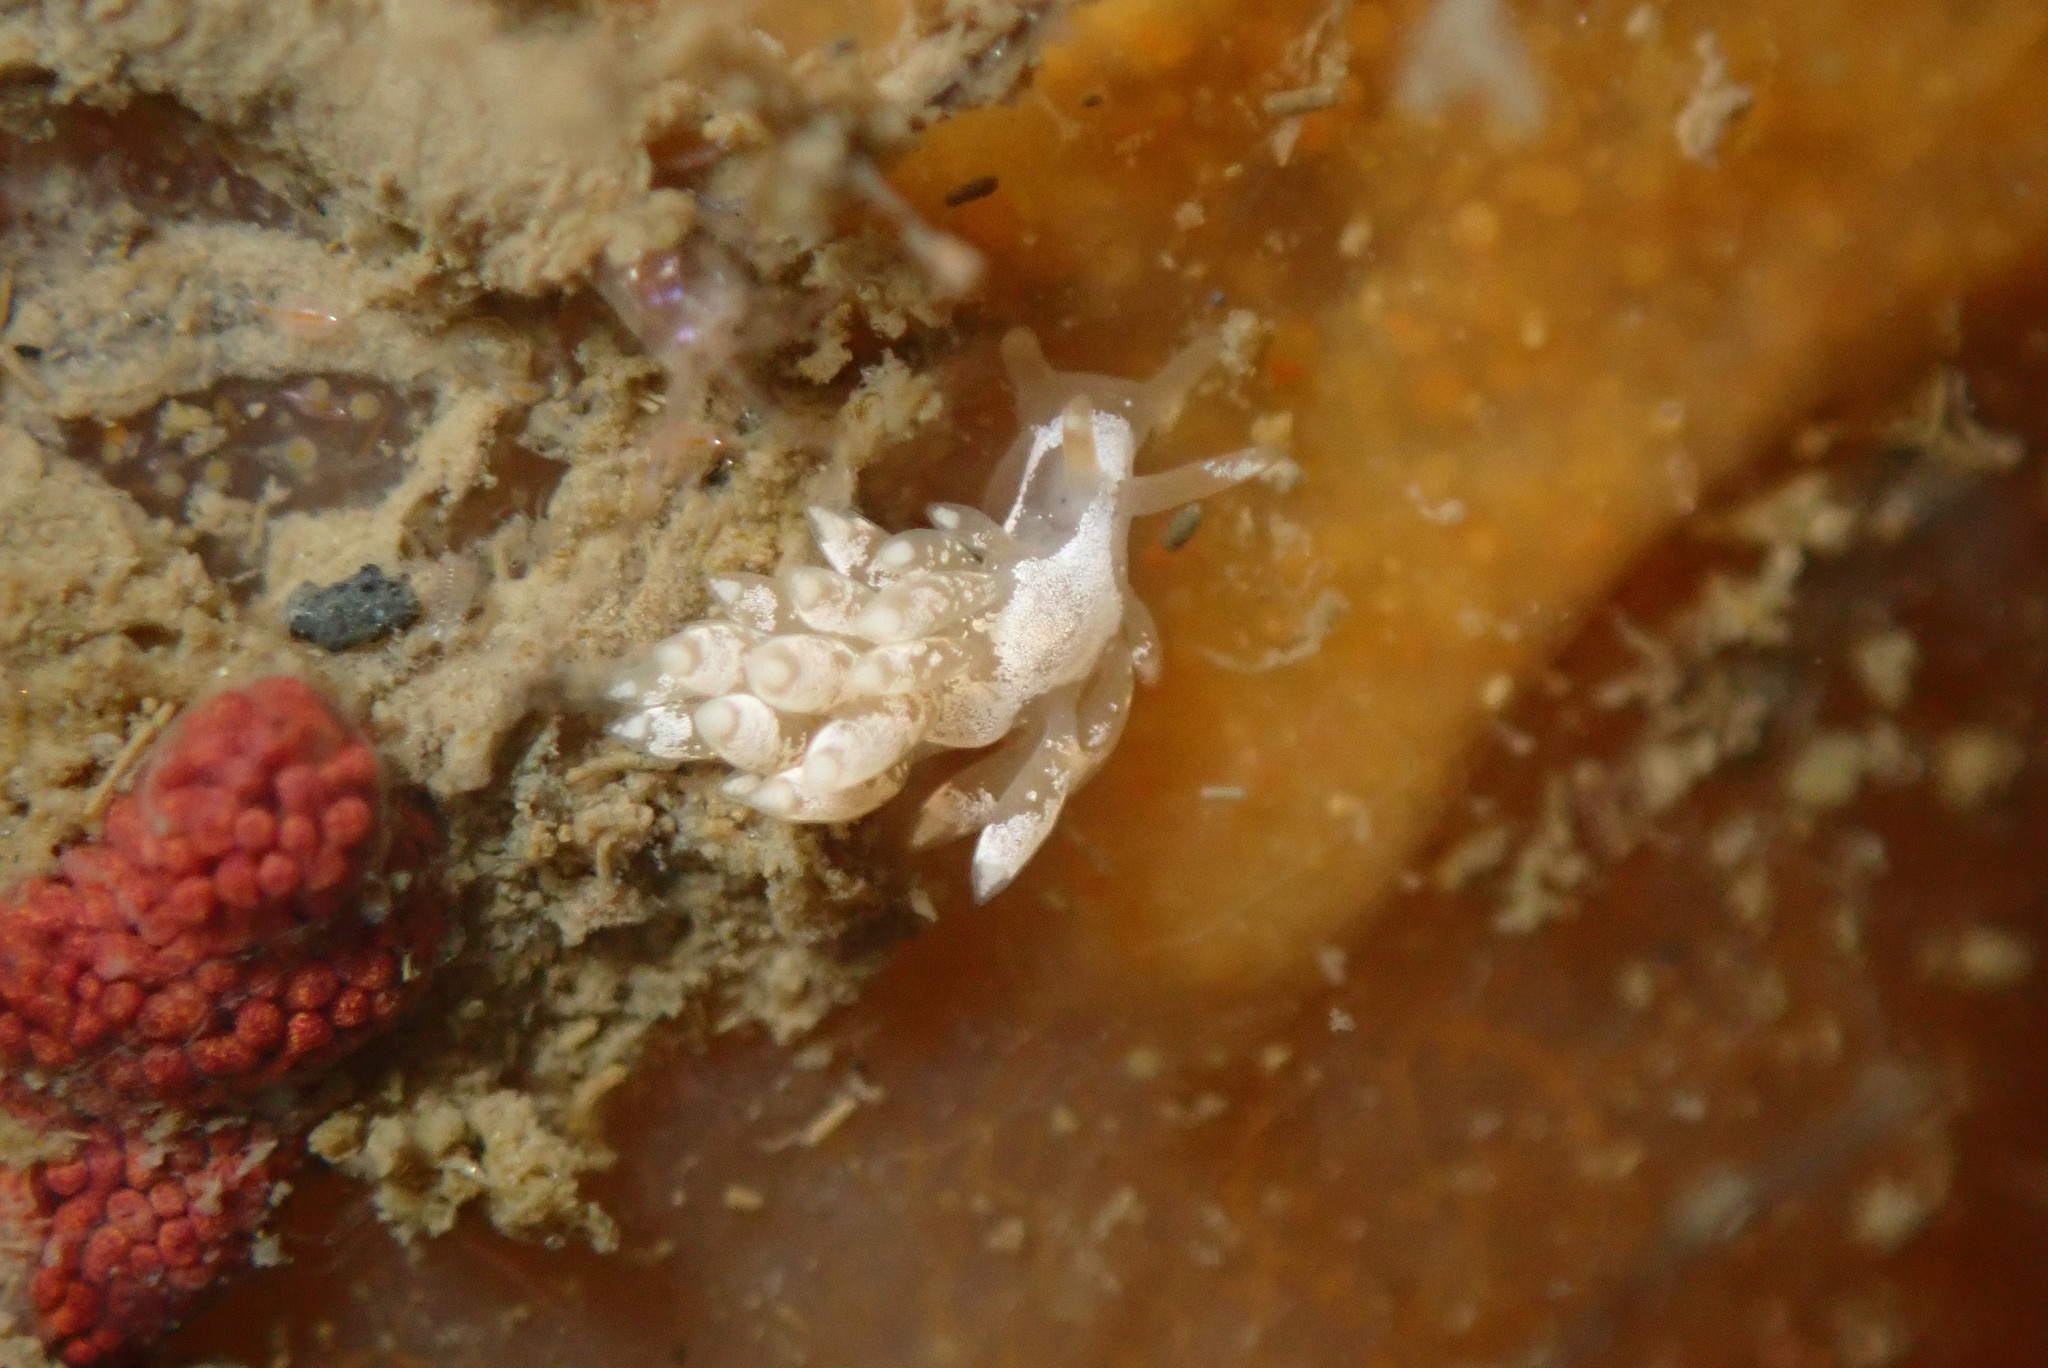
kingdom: Animalia
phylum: Mollusca
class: Gastropoda
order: Nudibranchia
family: Trinchesiidae
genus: Trinchesia
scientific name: Trinchesia albocrusta
